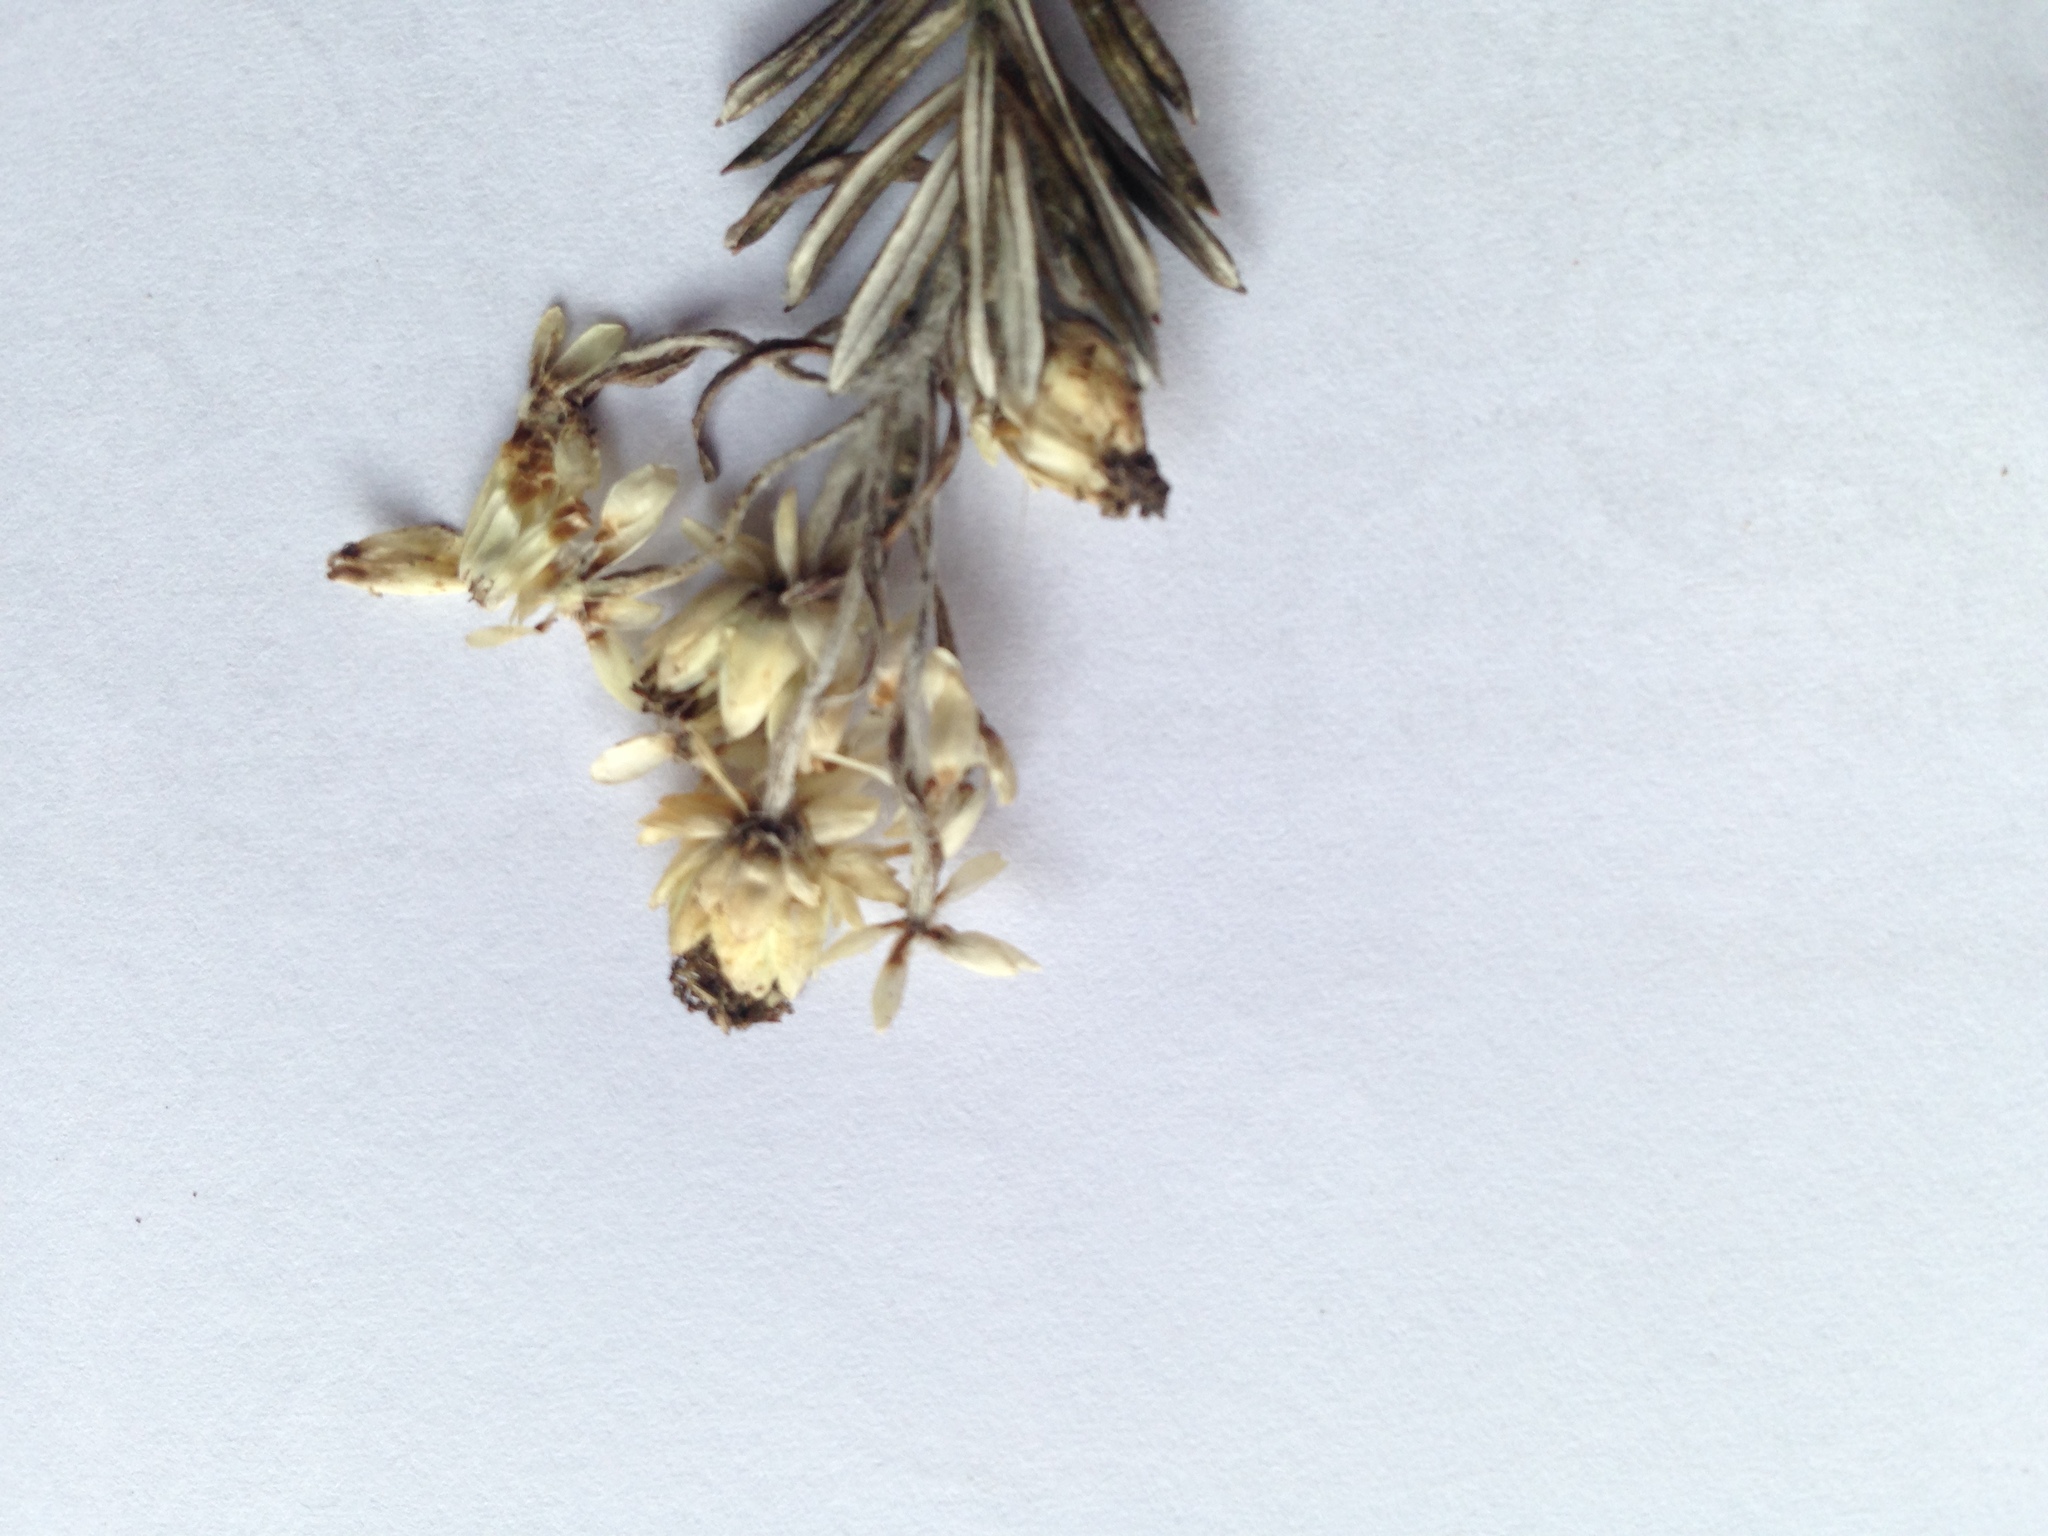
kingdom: Plantae
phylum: Tracheophyta
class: Magnoliopsida
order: Asterales
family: Asteraceae
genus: Anaphalioides
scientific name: Anaphalioides subrigida
